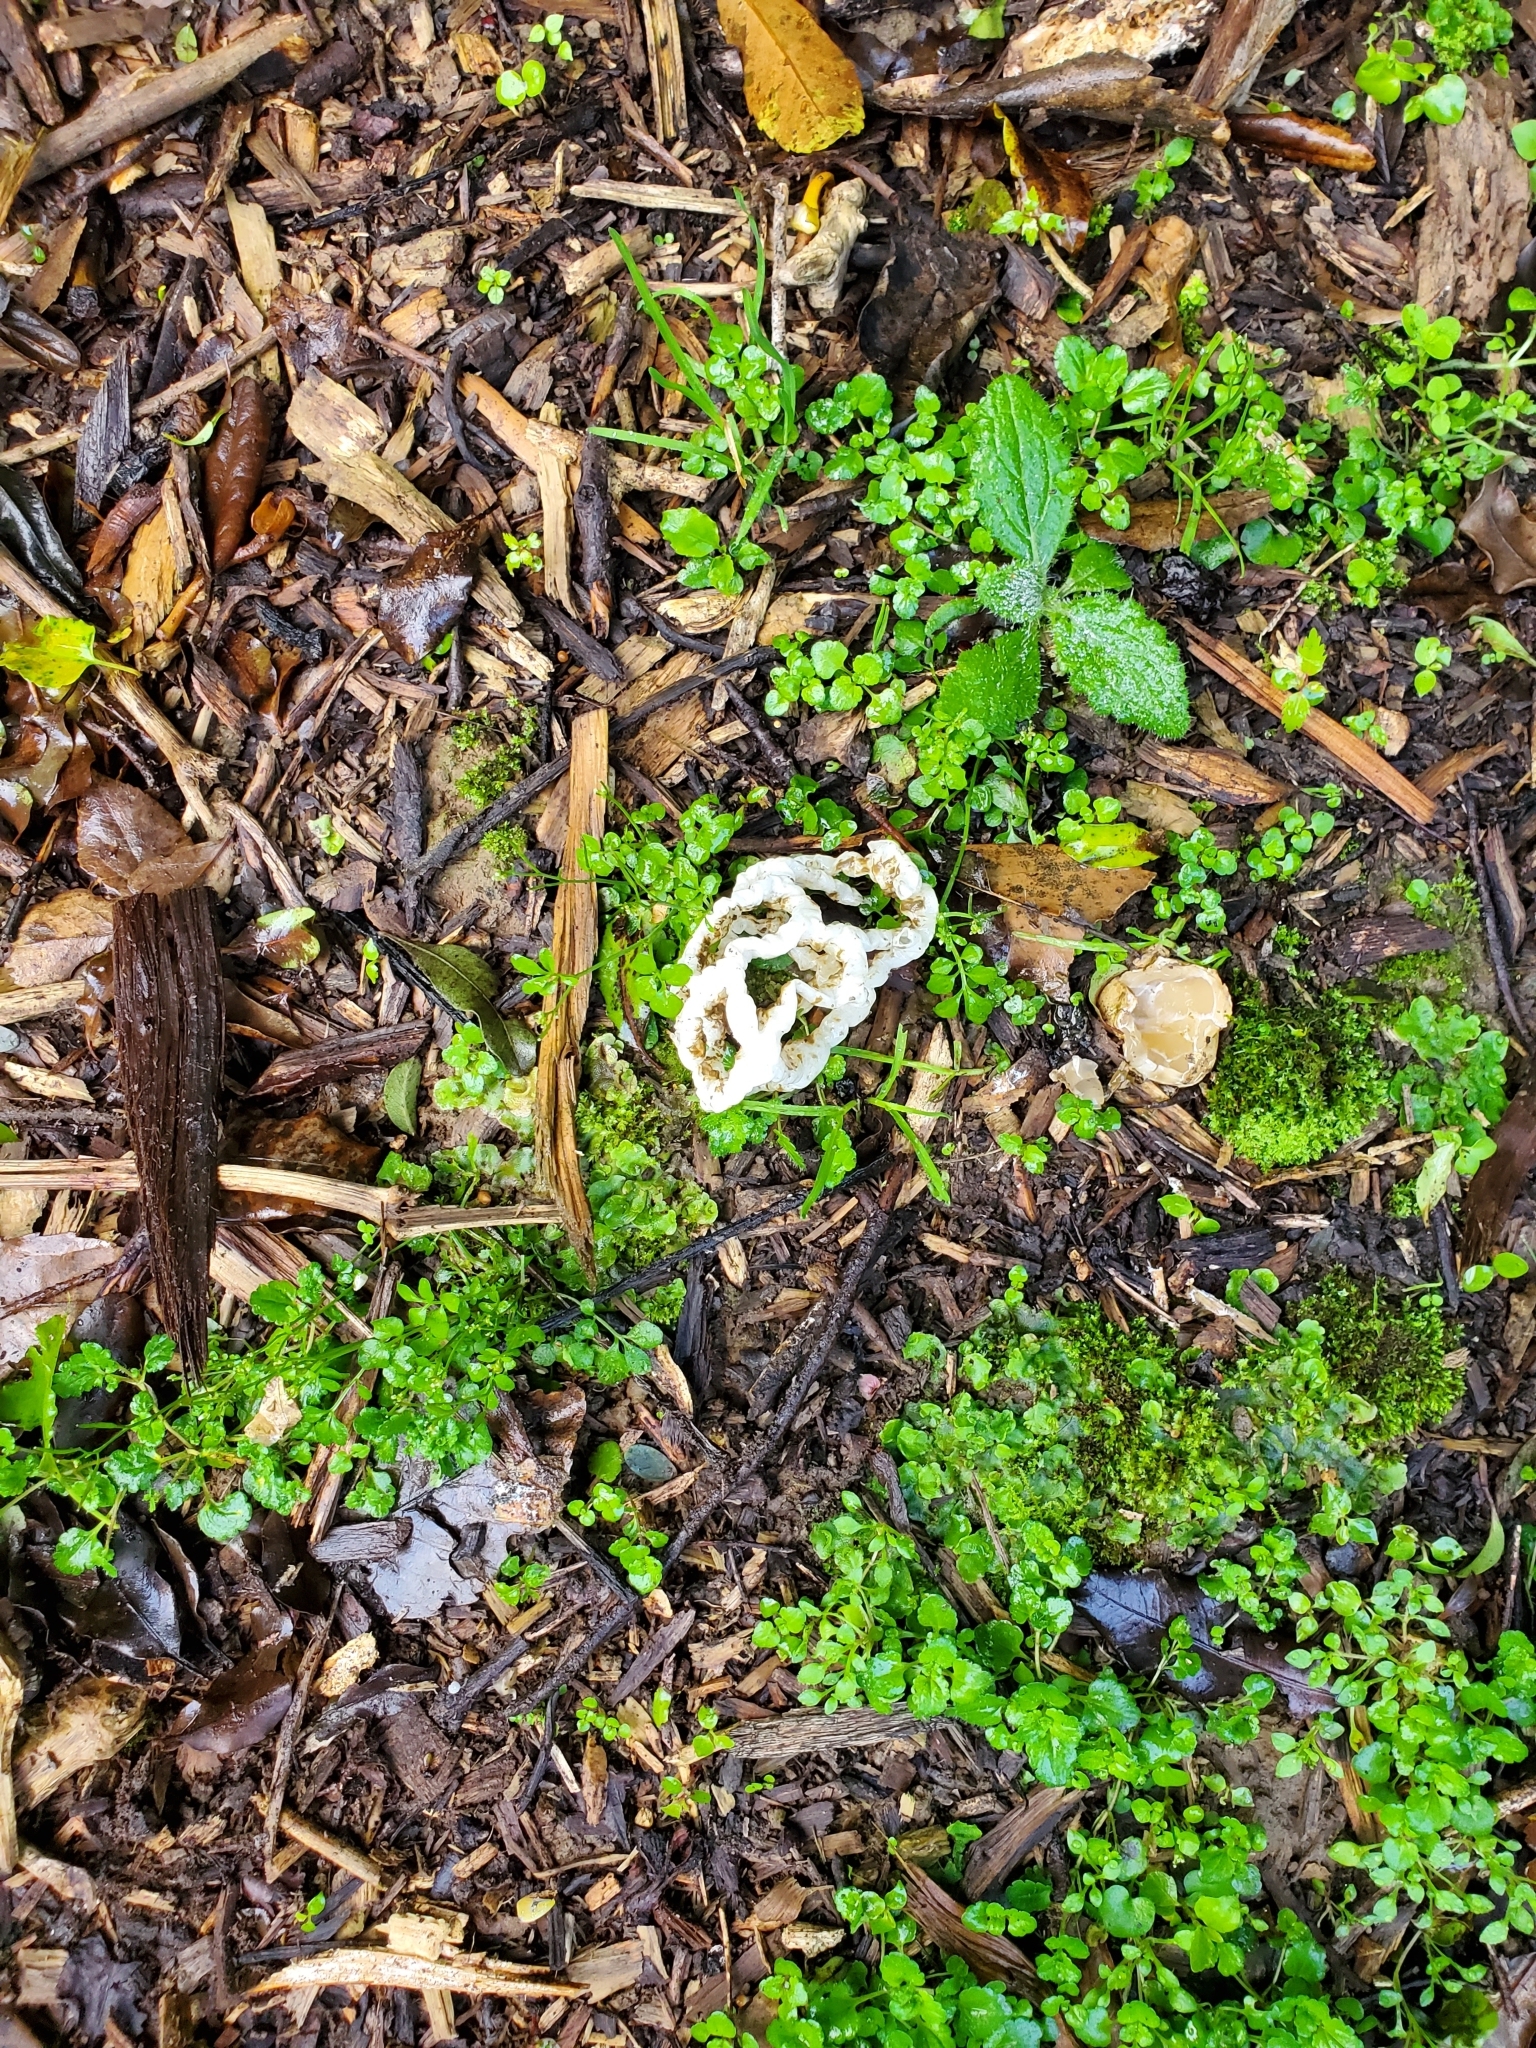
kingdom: Fungi
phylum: Basidiomycota
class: Agaricomycetes
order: Phallales
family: Phallaceae
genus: Ileodictyon
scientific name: Ileodictyon cibarium
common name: Basket fungus
